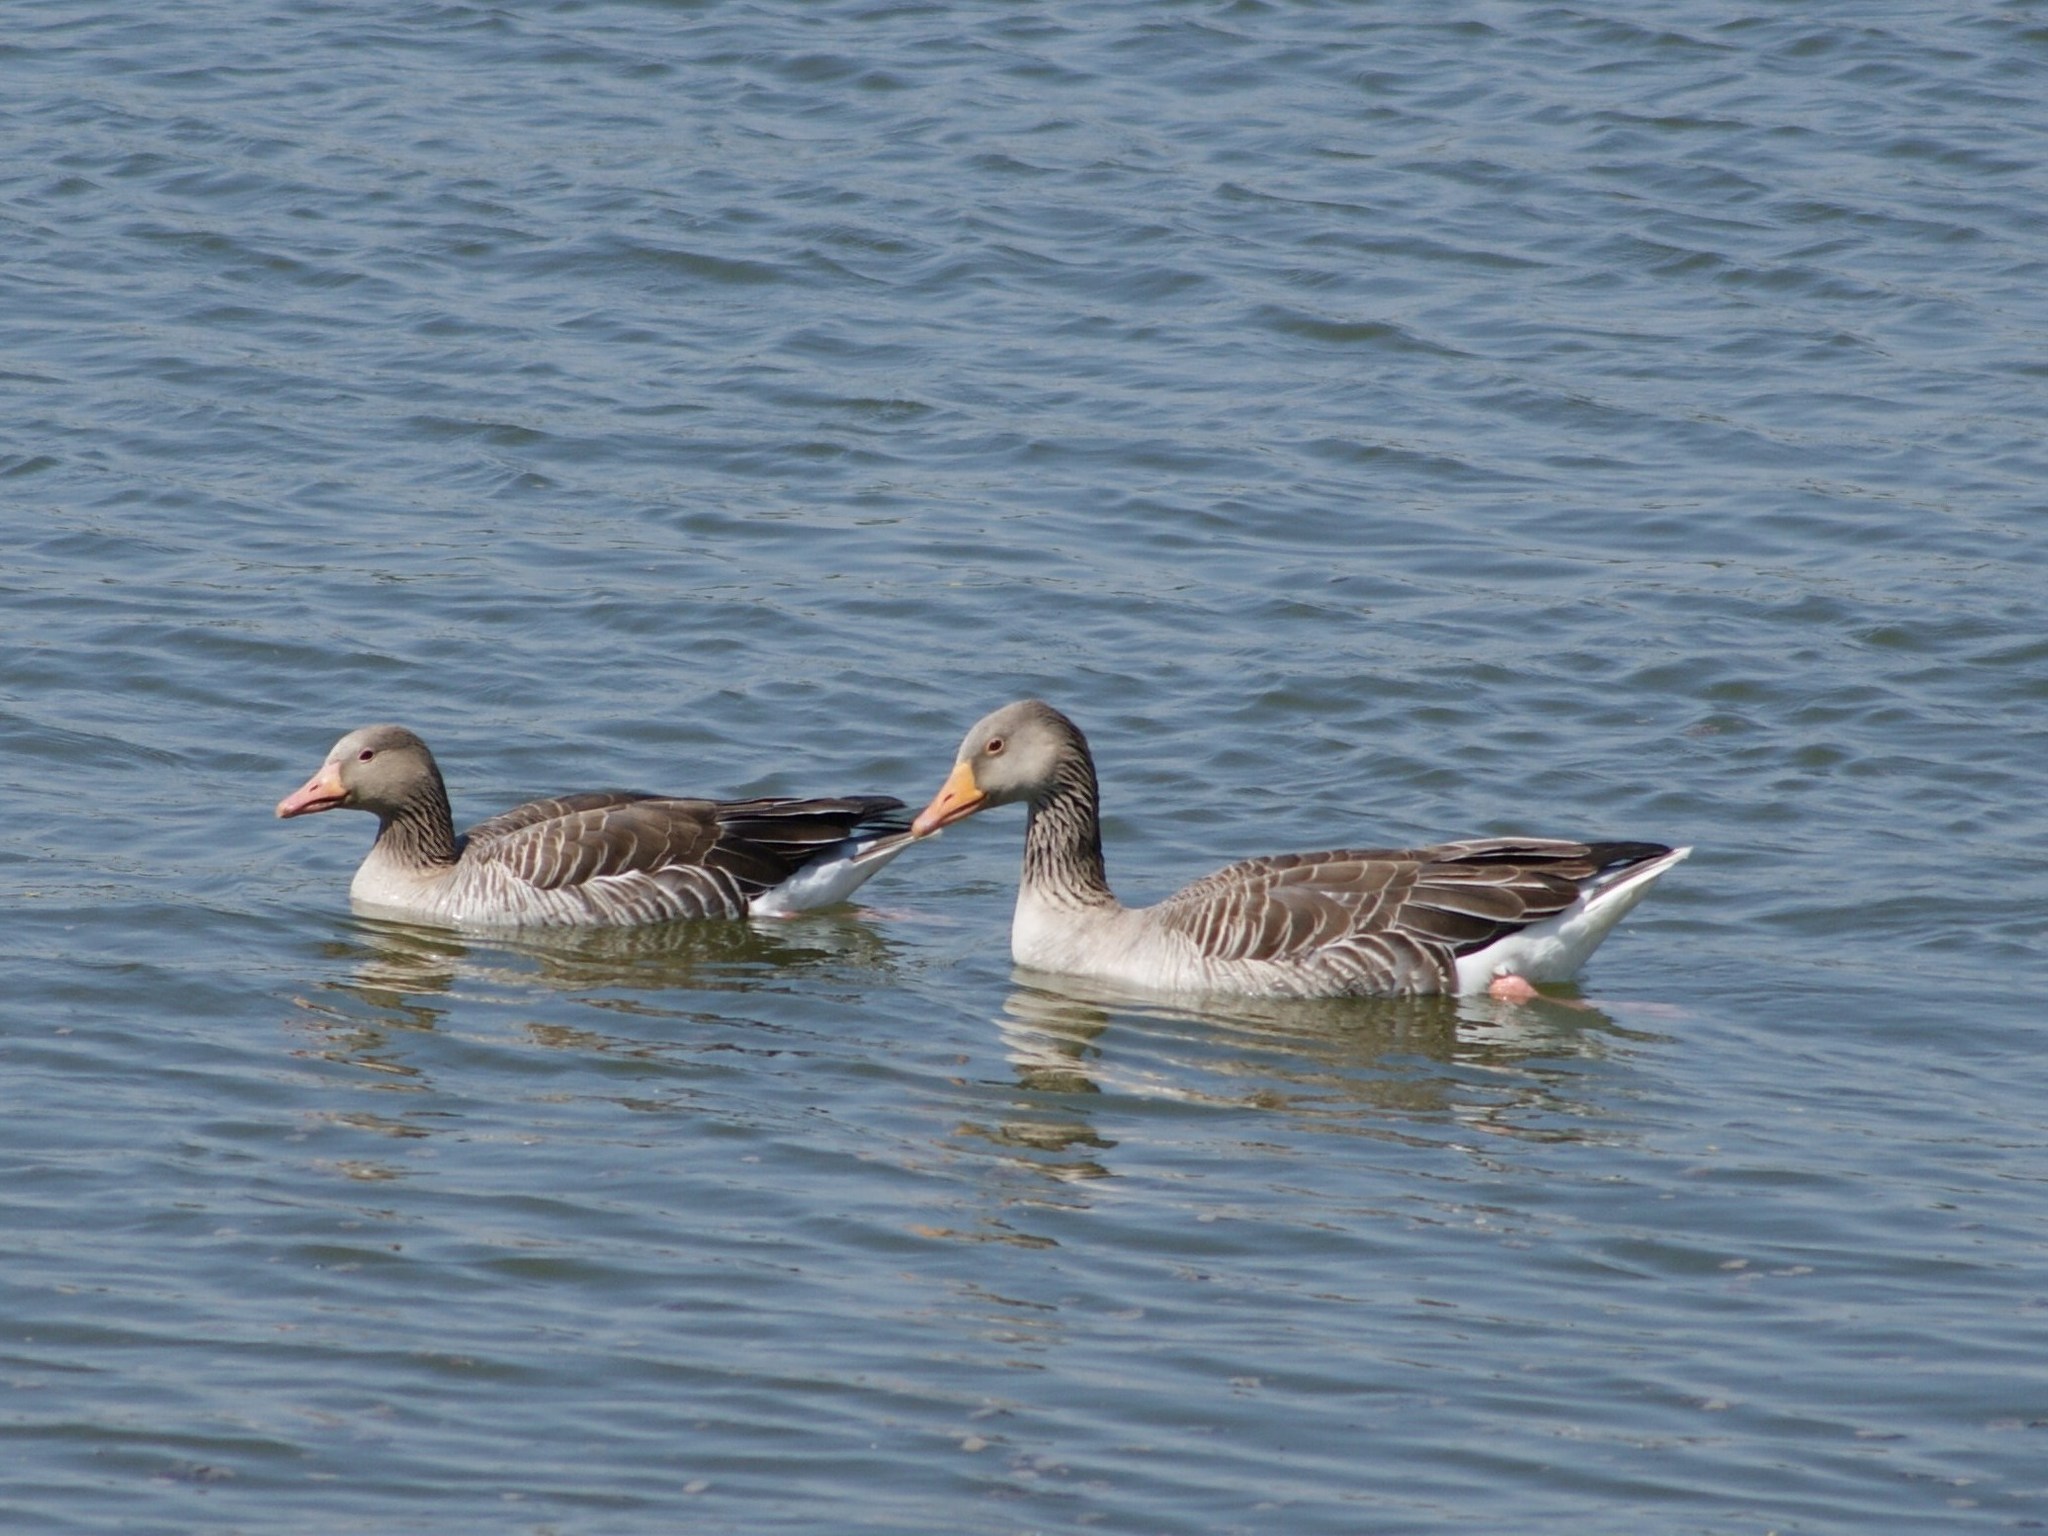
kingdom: Animalia
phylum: Chordata
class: Aves
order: Anseriformes
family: Anatidae
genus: Anser
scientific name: Anser anser
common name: Greylag goose
